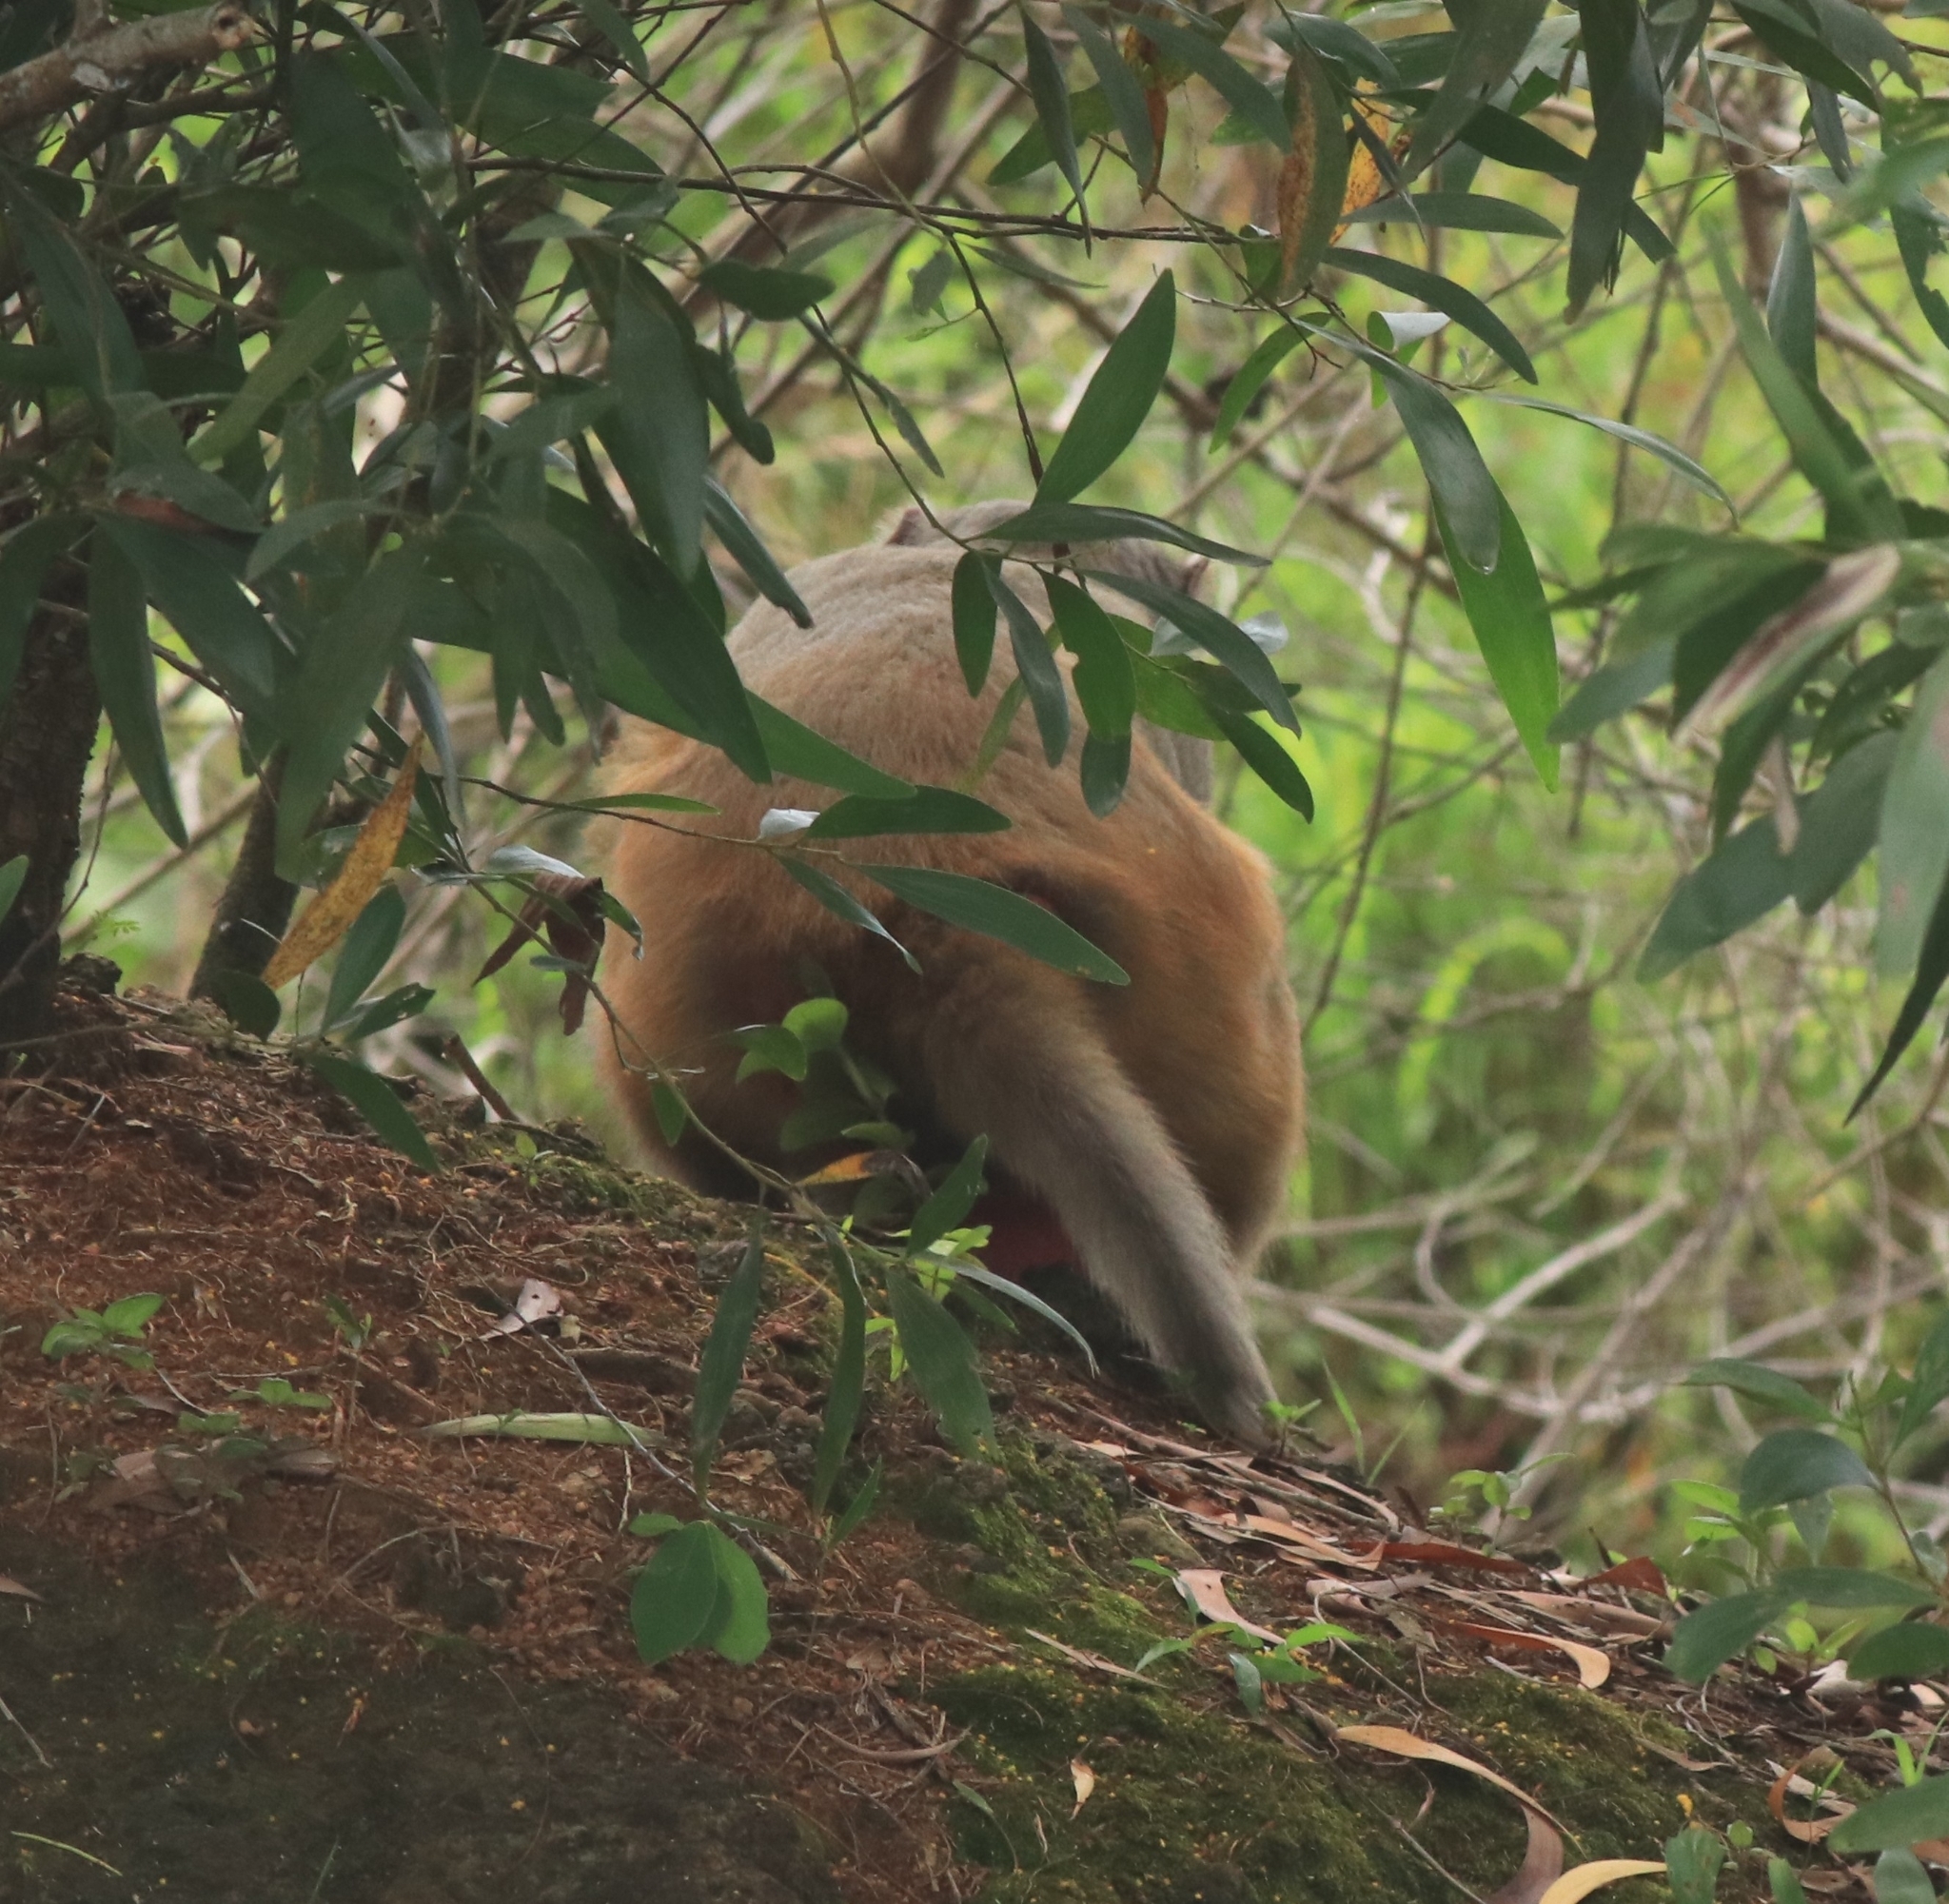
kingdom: Animalia
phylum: Chordata
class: Mammalia
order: Primates
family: Cercopithecidae
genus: Macaca
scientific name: Macaca mulatta
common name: Rhesus monkey
